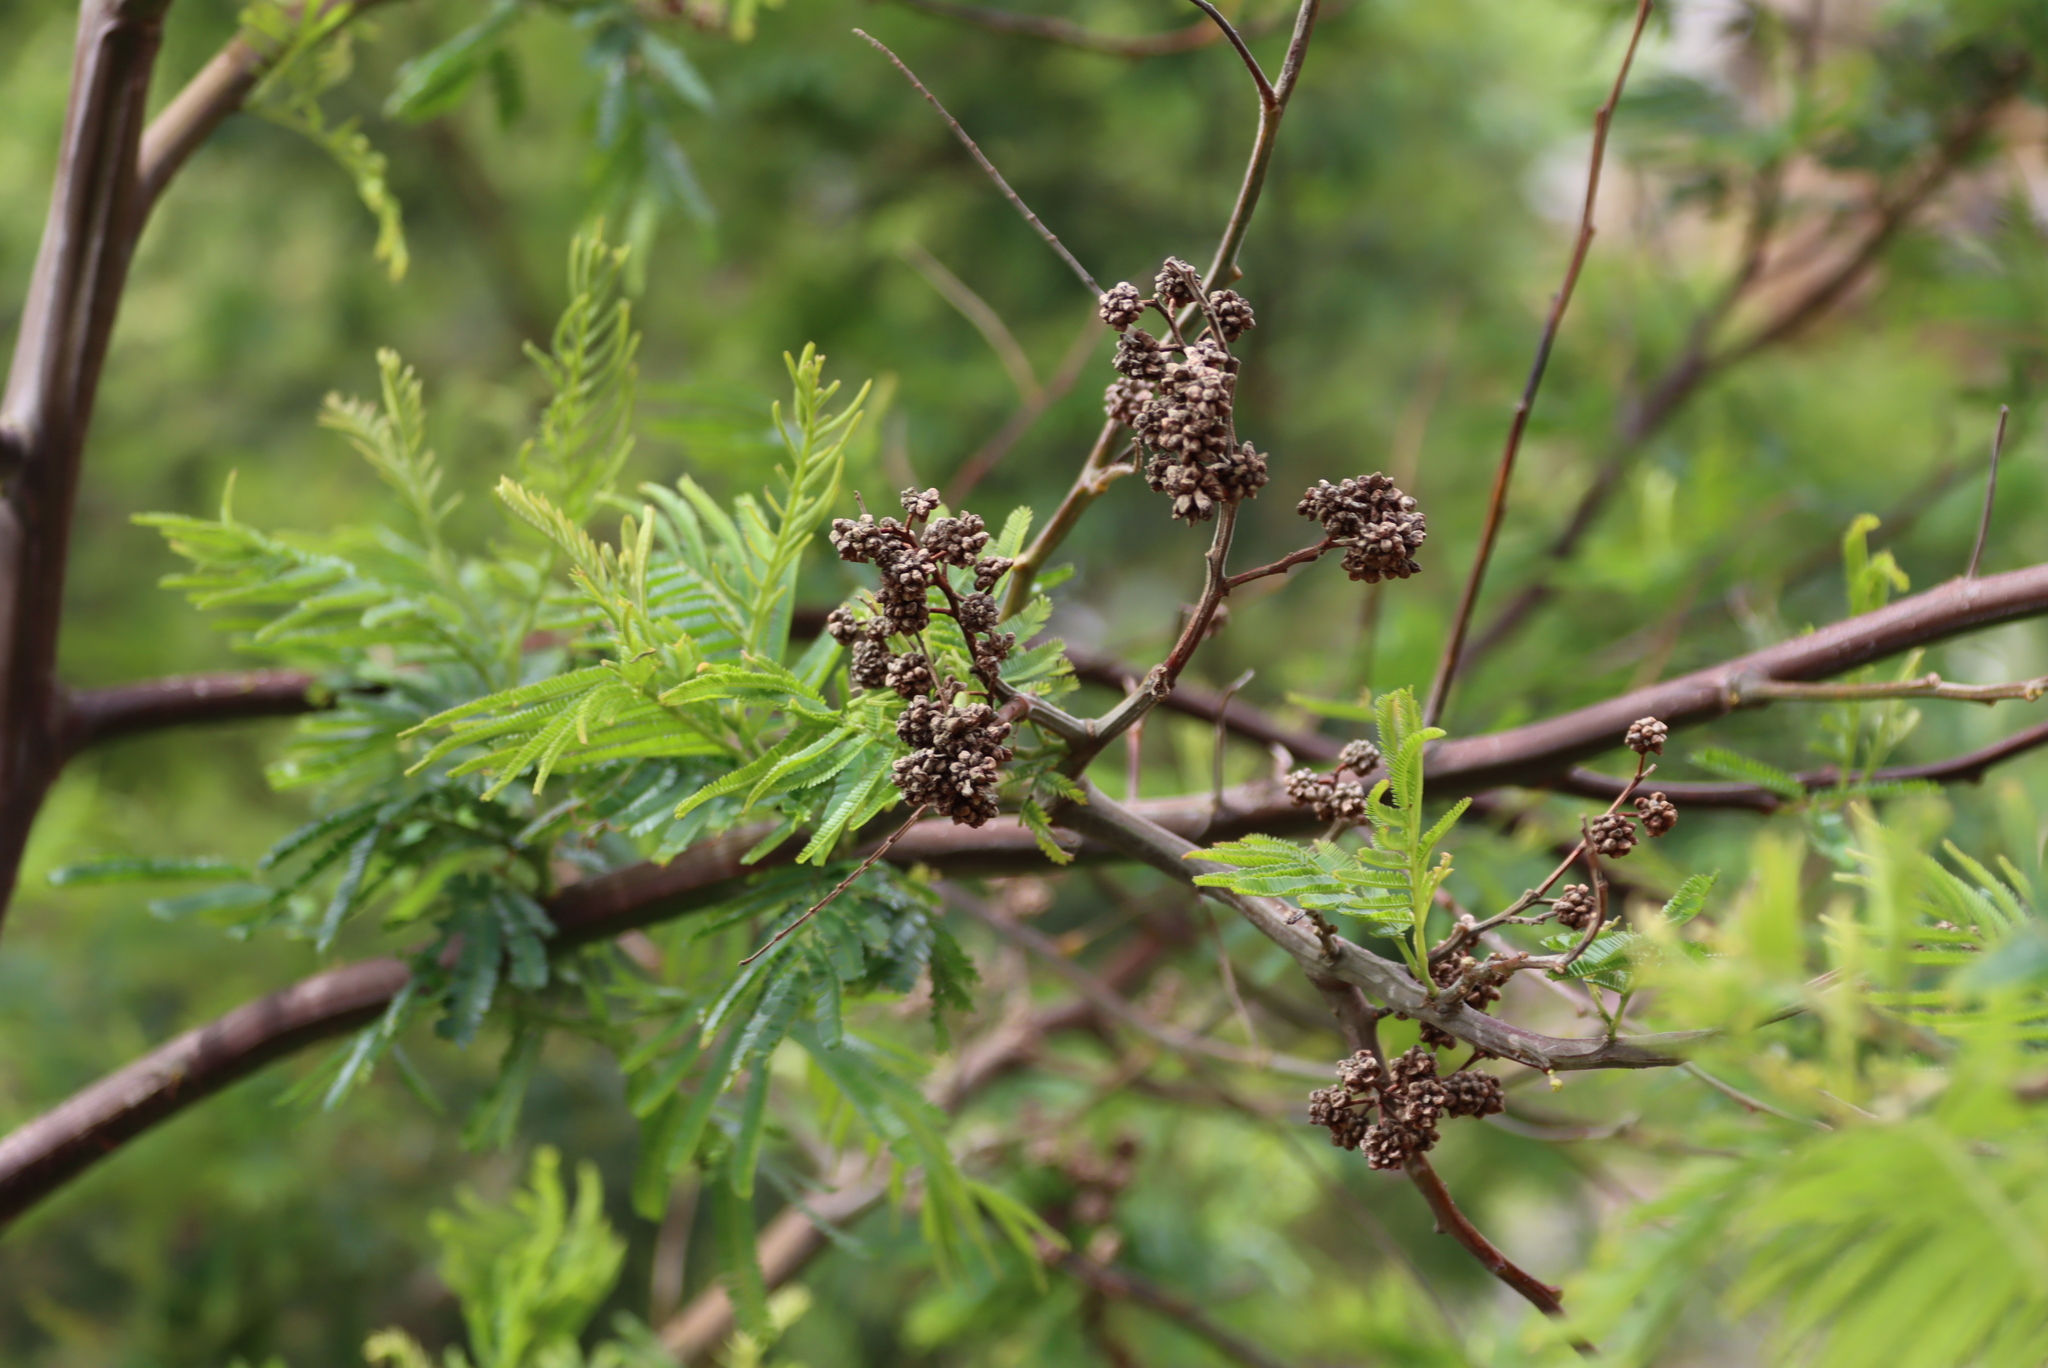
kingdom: Plantae
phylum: Tracheophyta
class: Magnoliopsida
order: Fabales
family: Fabaceae
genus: Acacia
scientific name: Acacia mearnsii
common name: Black wattle
